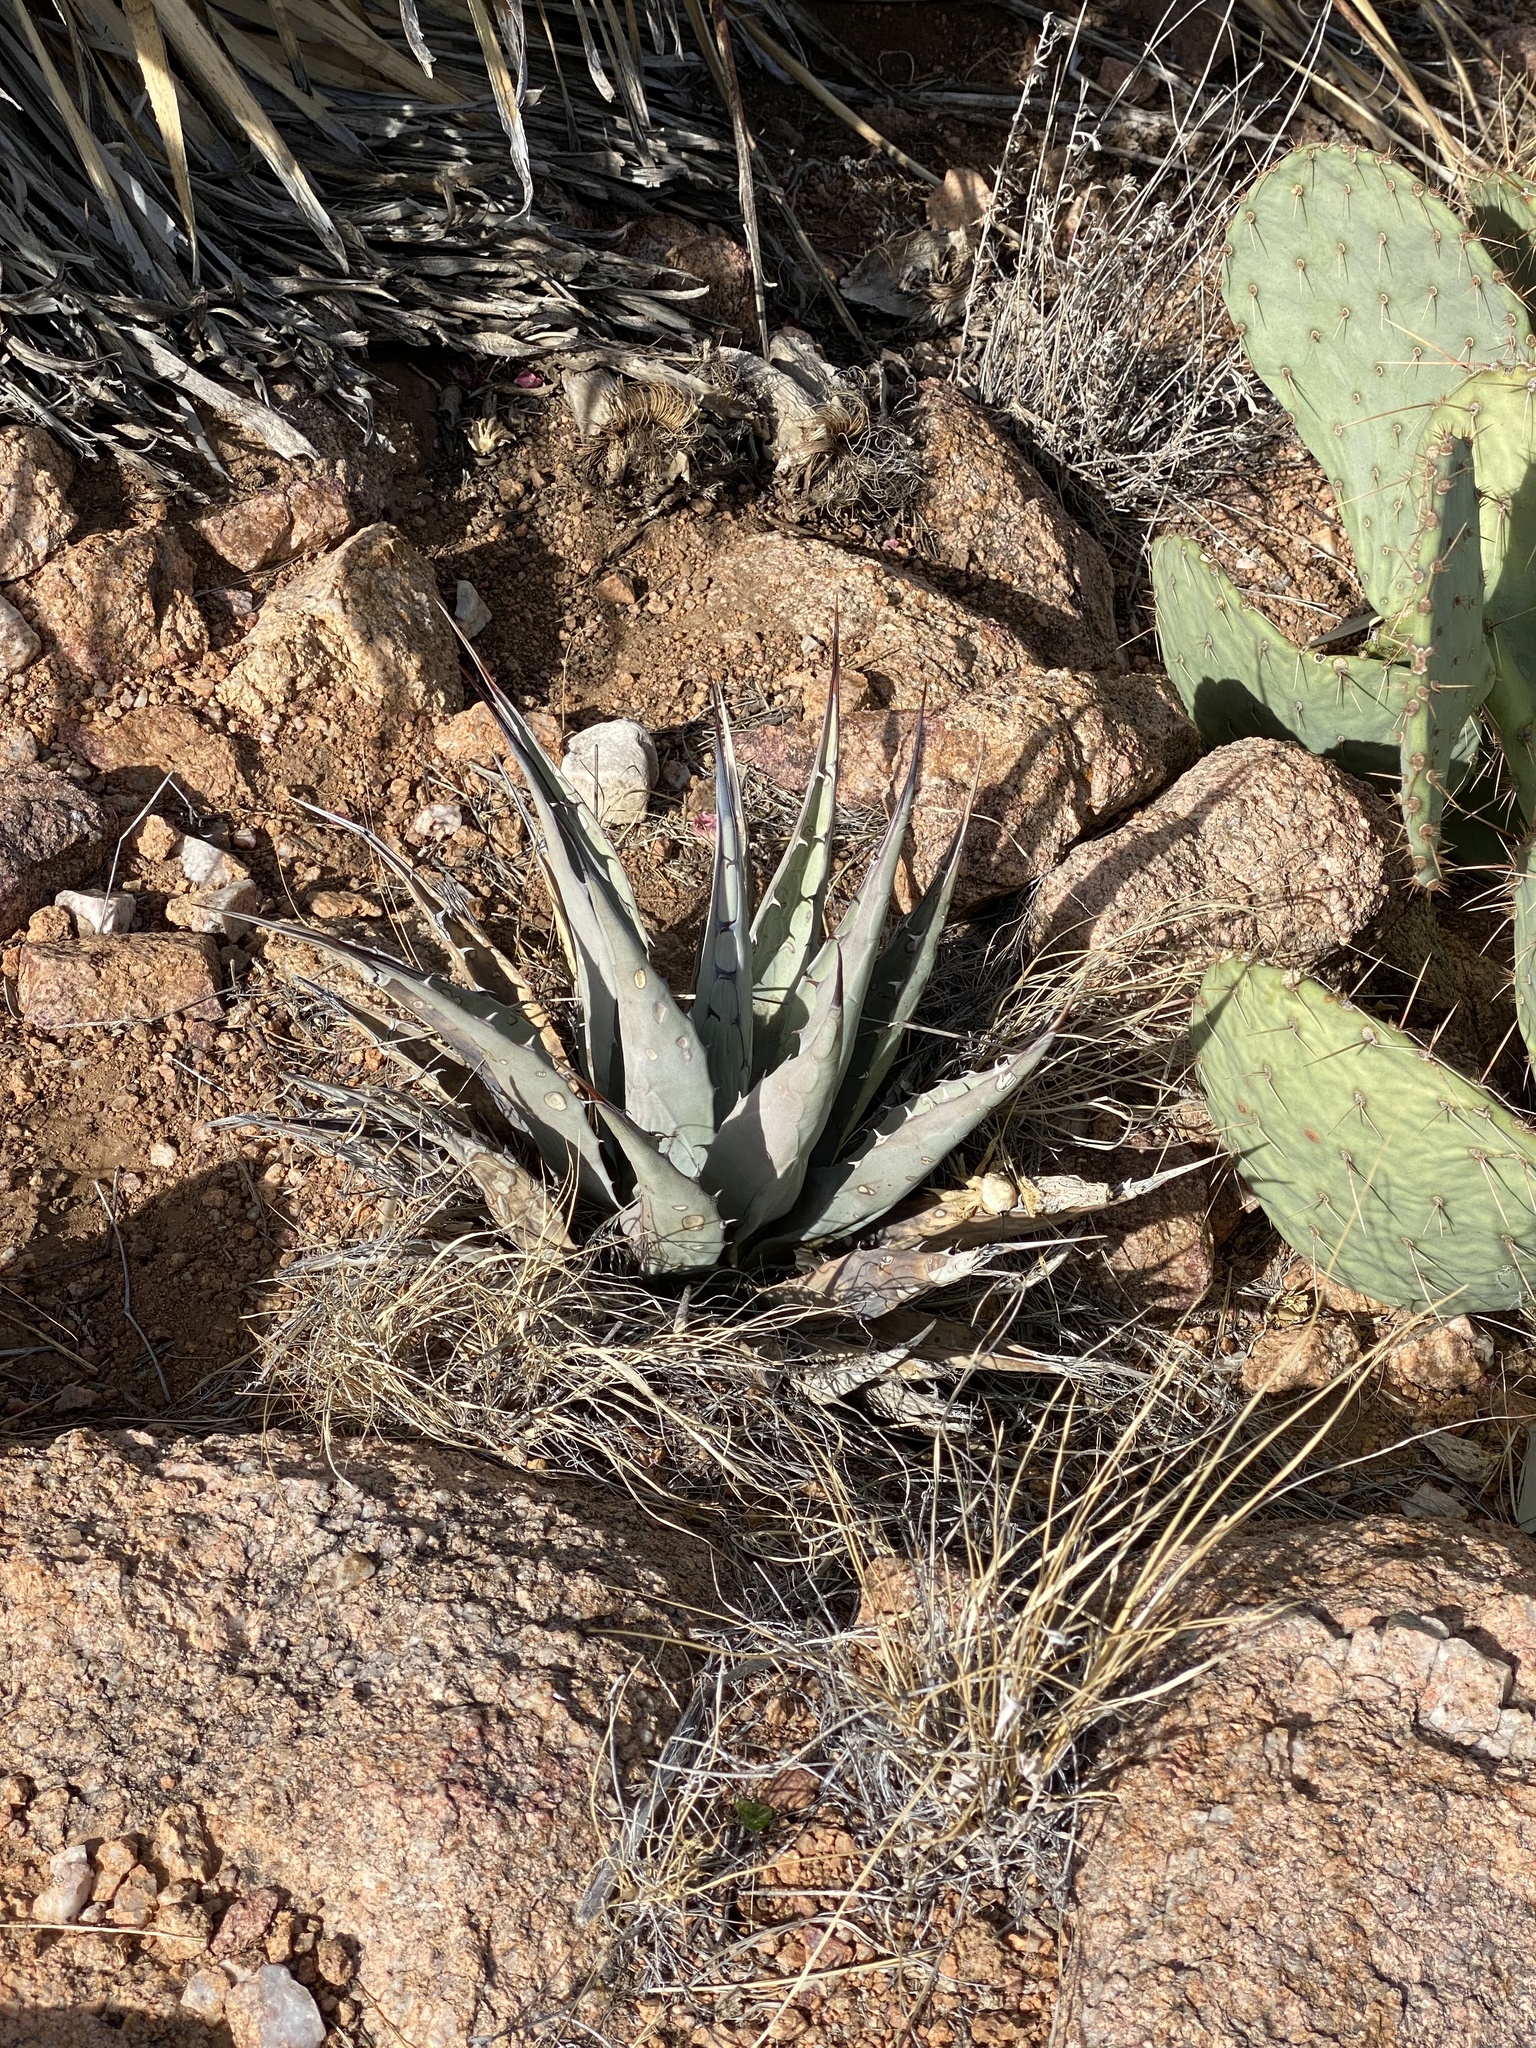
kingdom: Plantae
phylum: Tracheophyta
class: Liliopsida
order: Asparagales
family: Asparagaceae
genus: Agave
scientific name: Agave parryi
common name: Parry's agave
